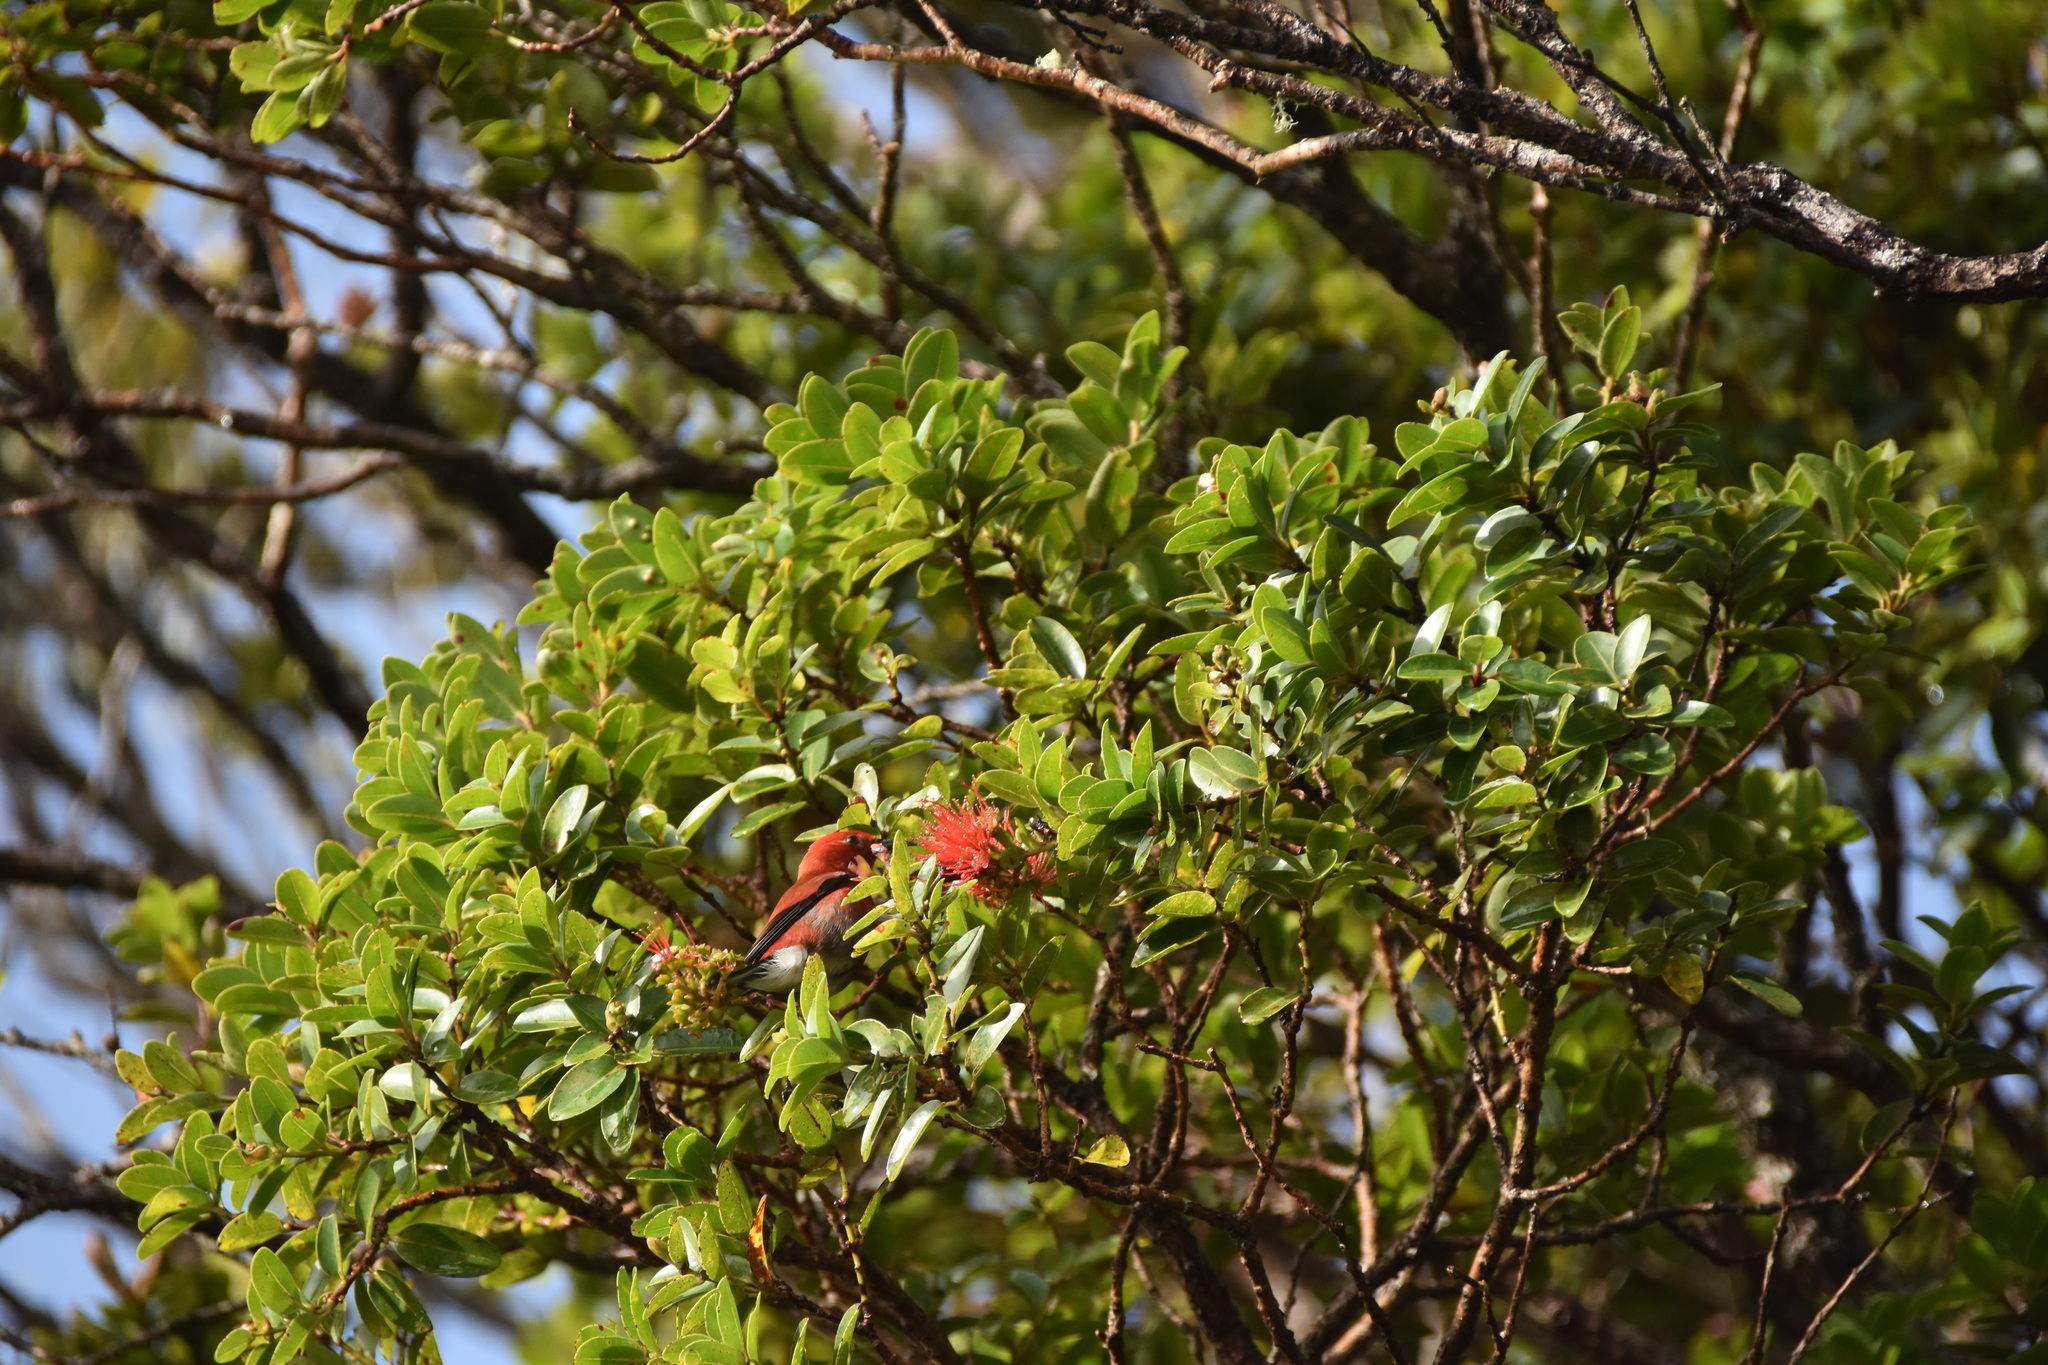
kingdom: Animalia
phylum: Chordata
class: Aves
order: Passeriformes
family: Fringillidae
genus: Himatione
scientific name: Himatione sanguinea
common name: Apapane
